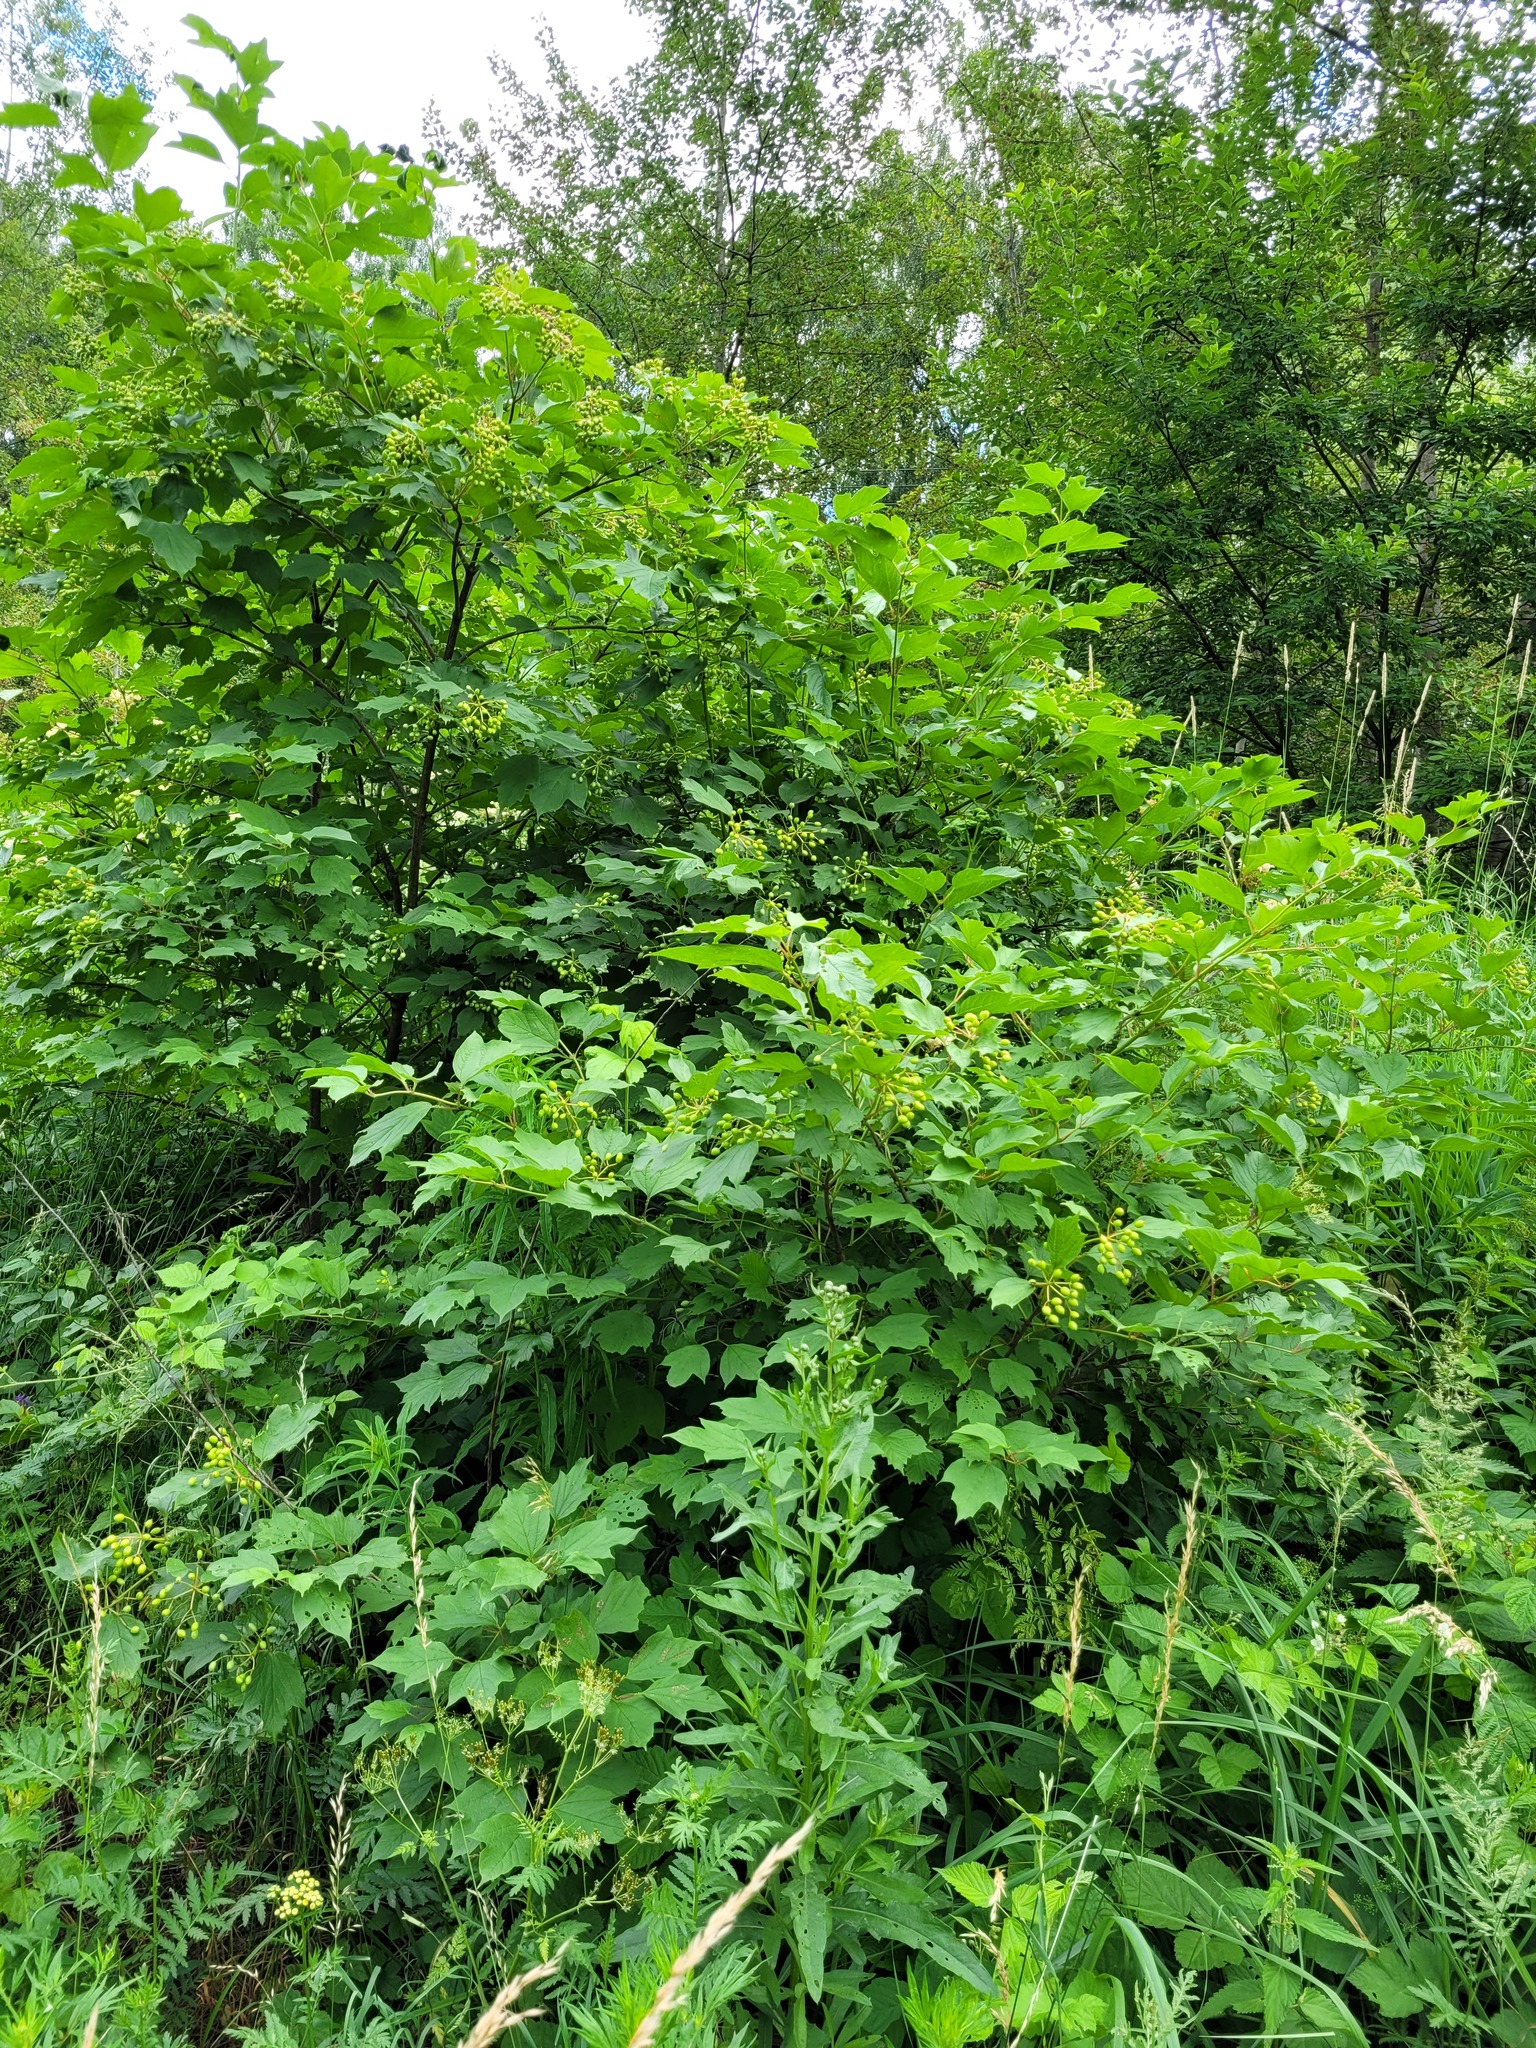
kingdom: Plantae
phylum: Tracheophyta
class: Magnoliopsida
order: Dipsacales
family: Viburnaceae
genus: Viburnum
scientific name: Viburnum opulus
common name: Guelder-rose
